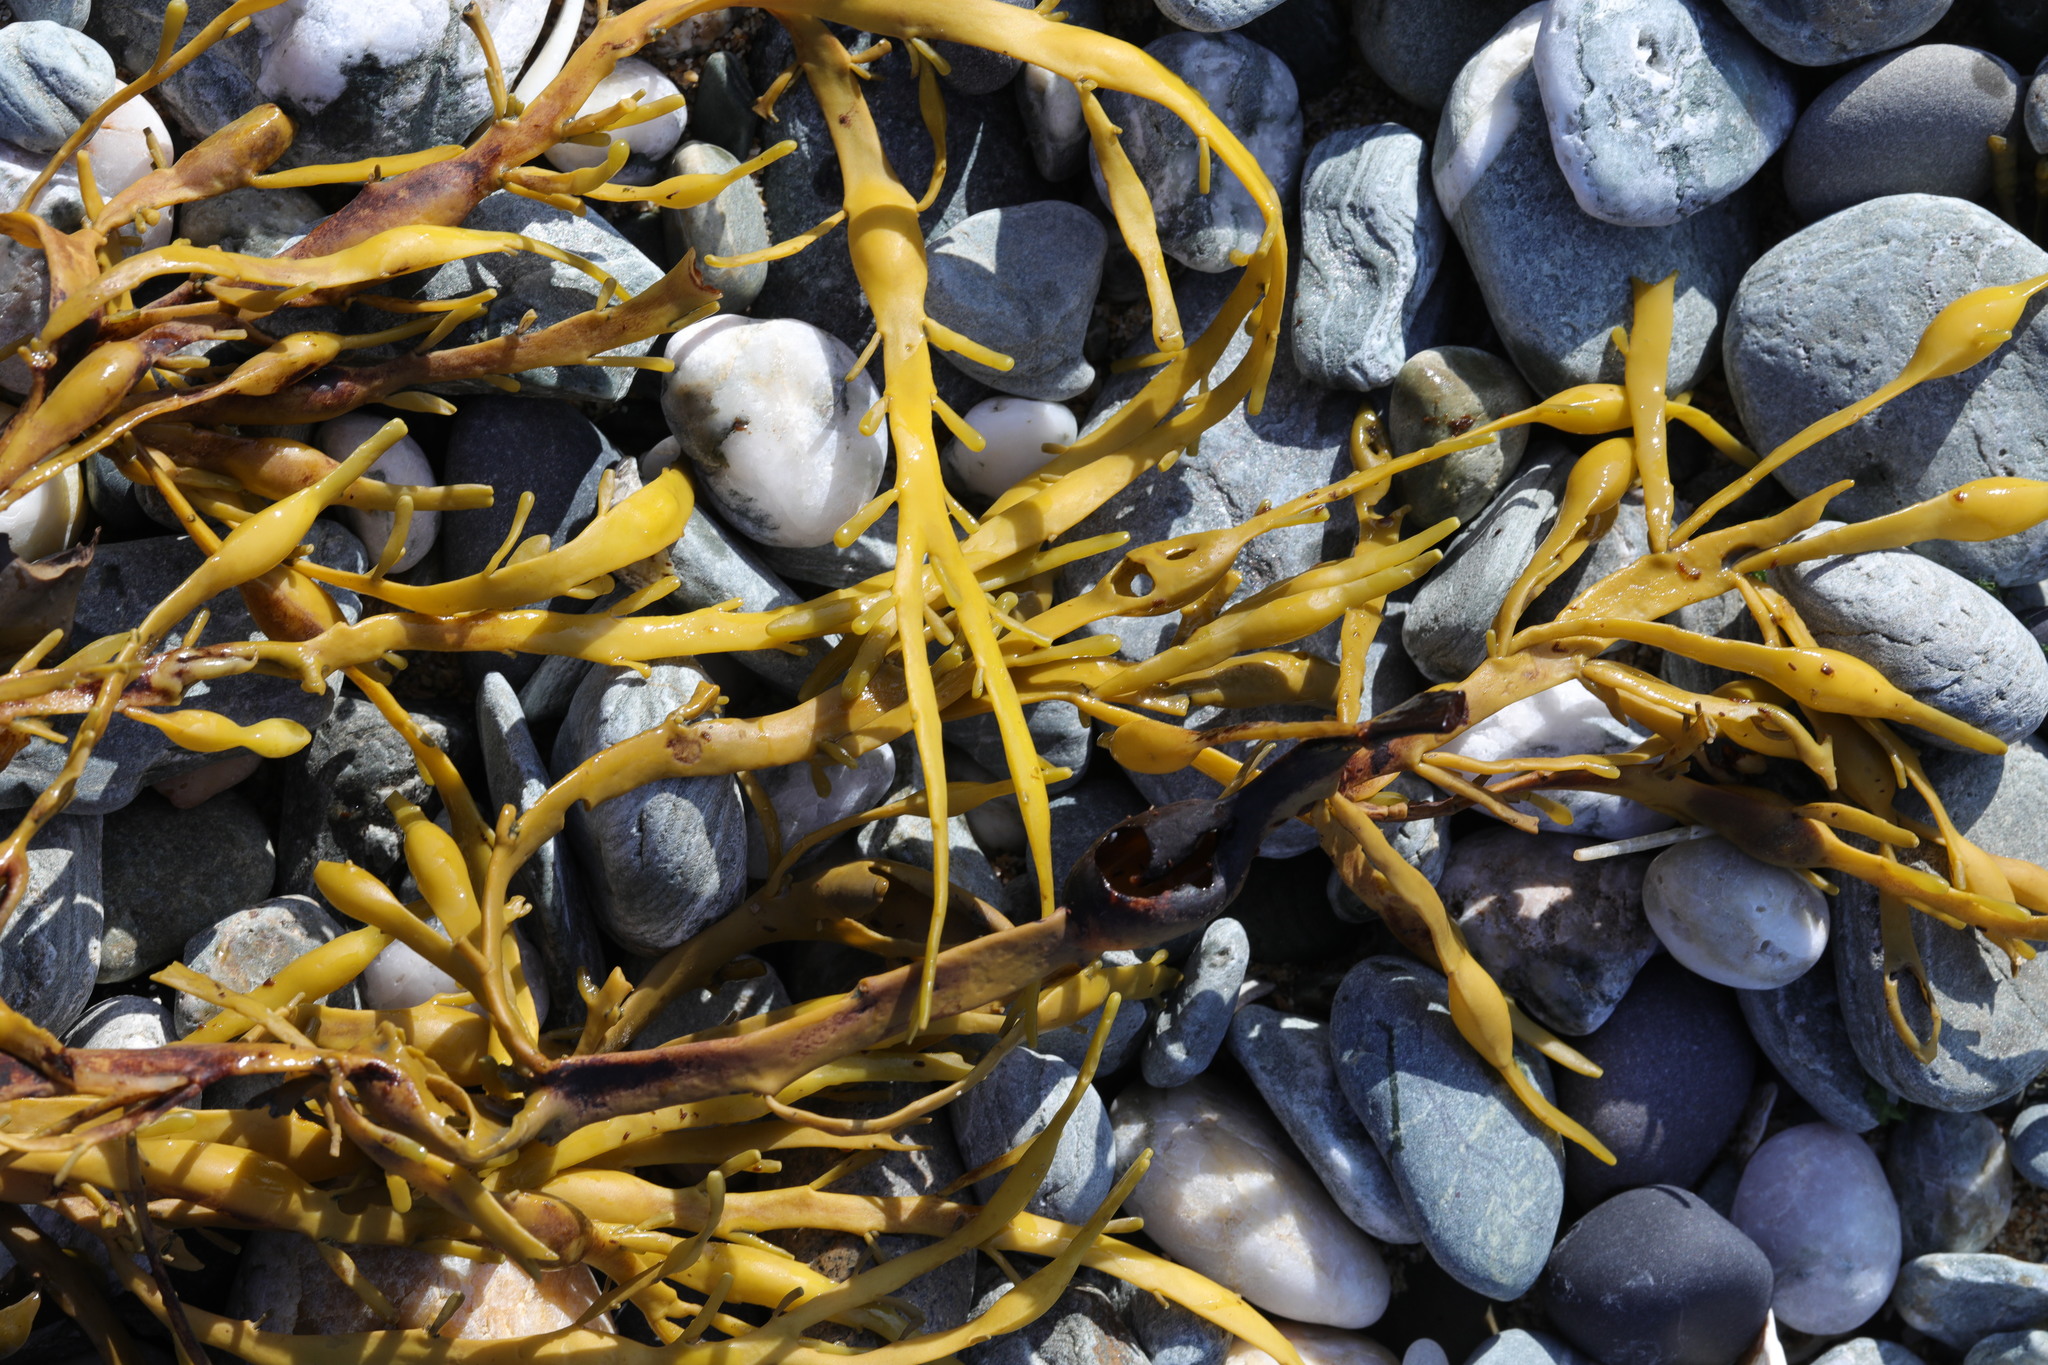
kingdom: Chromista
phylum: Ochrophyta
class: Phaeophyceae
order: Fucales
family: Fucaceae
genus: Ascophyllum
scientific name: Ascophyllum nodosum
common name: Knotted wrack
